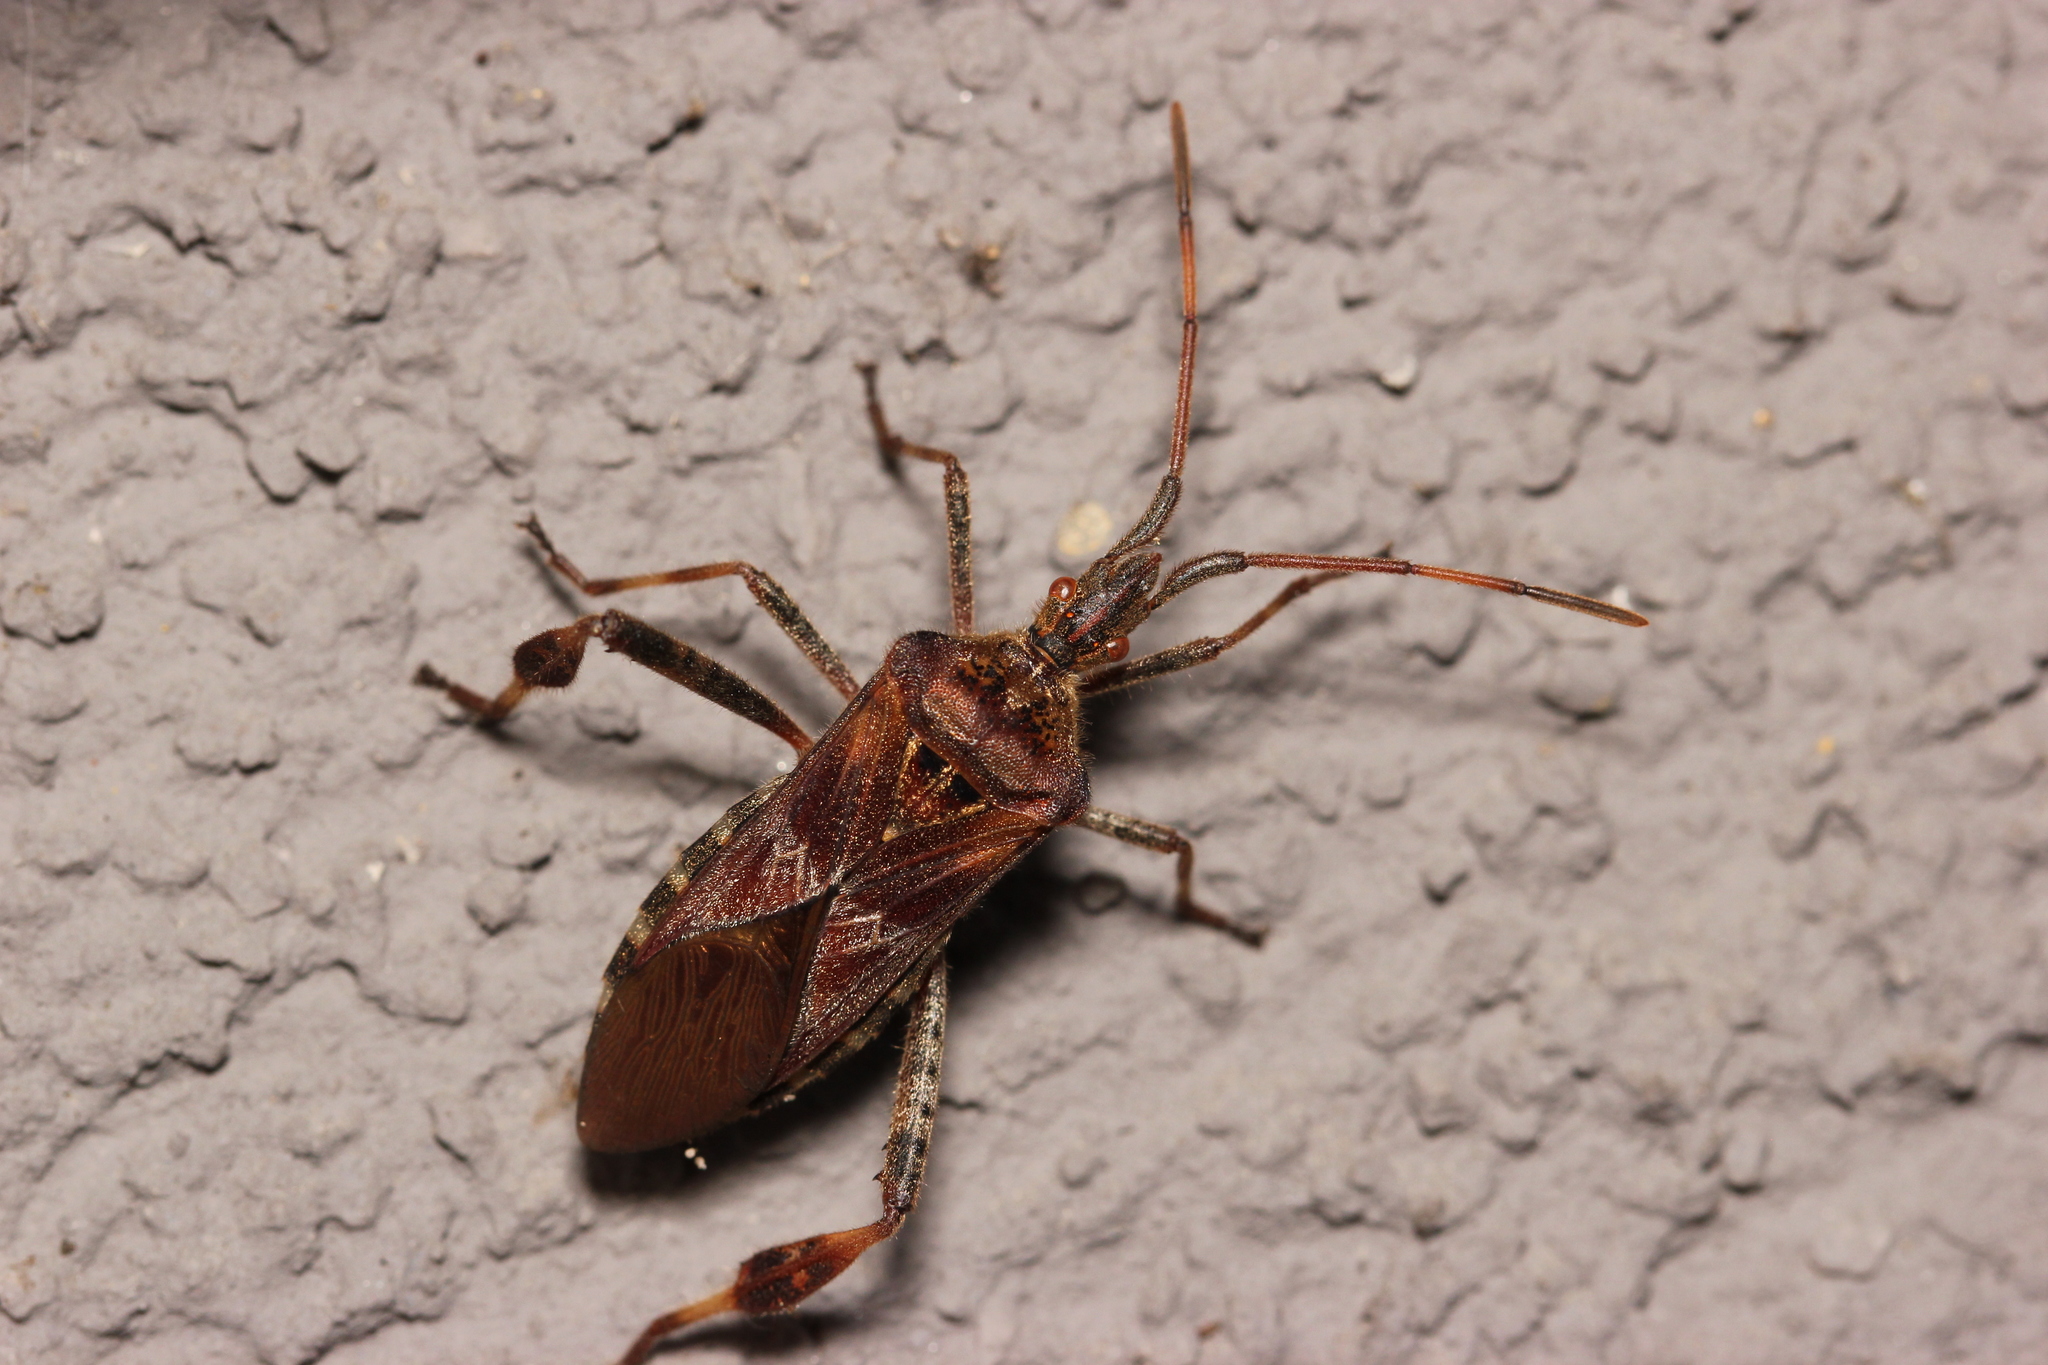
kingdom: Animalia
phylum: Arthropoda
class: Insecta
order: Hemiptera
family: Coreidae
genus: Leptoglossus
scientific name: Leptoglossus occidentalis
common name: Western conifer-seed bug
